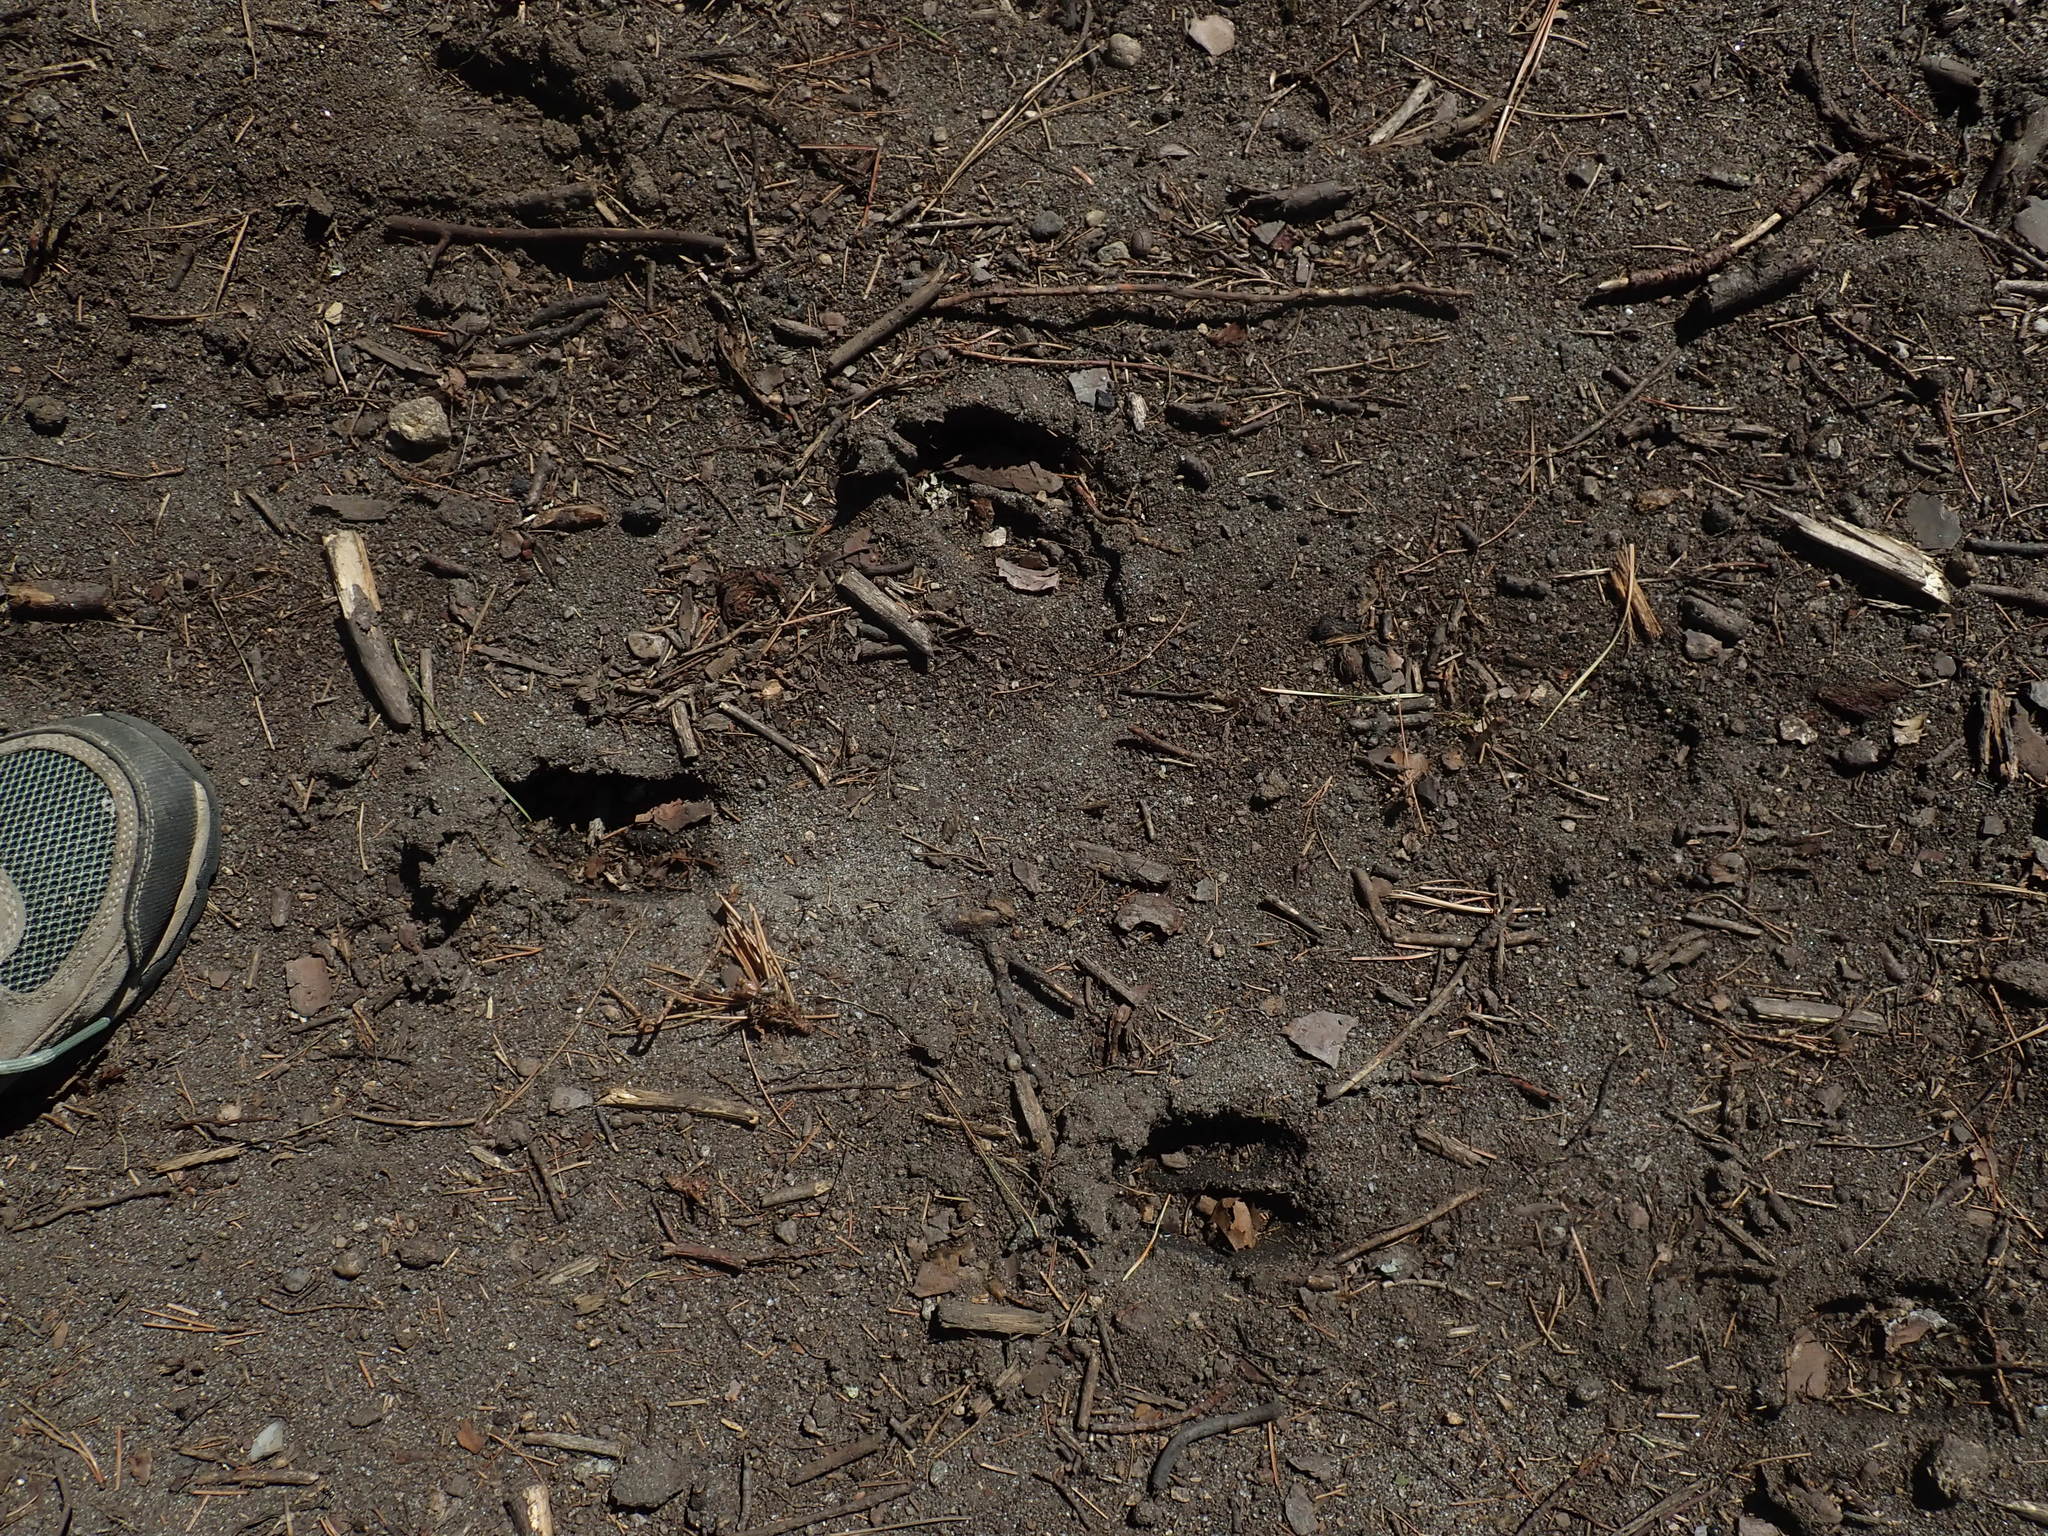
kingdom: Animalia
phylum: Chordata
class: Mammalia
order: Artiodactyla
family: Cervidae
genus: Odocoileus
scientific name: Odocoileus virginianus
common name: White-tailed deer
